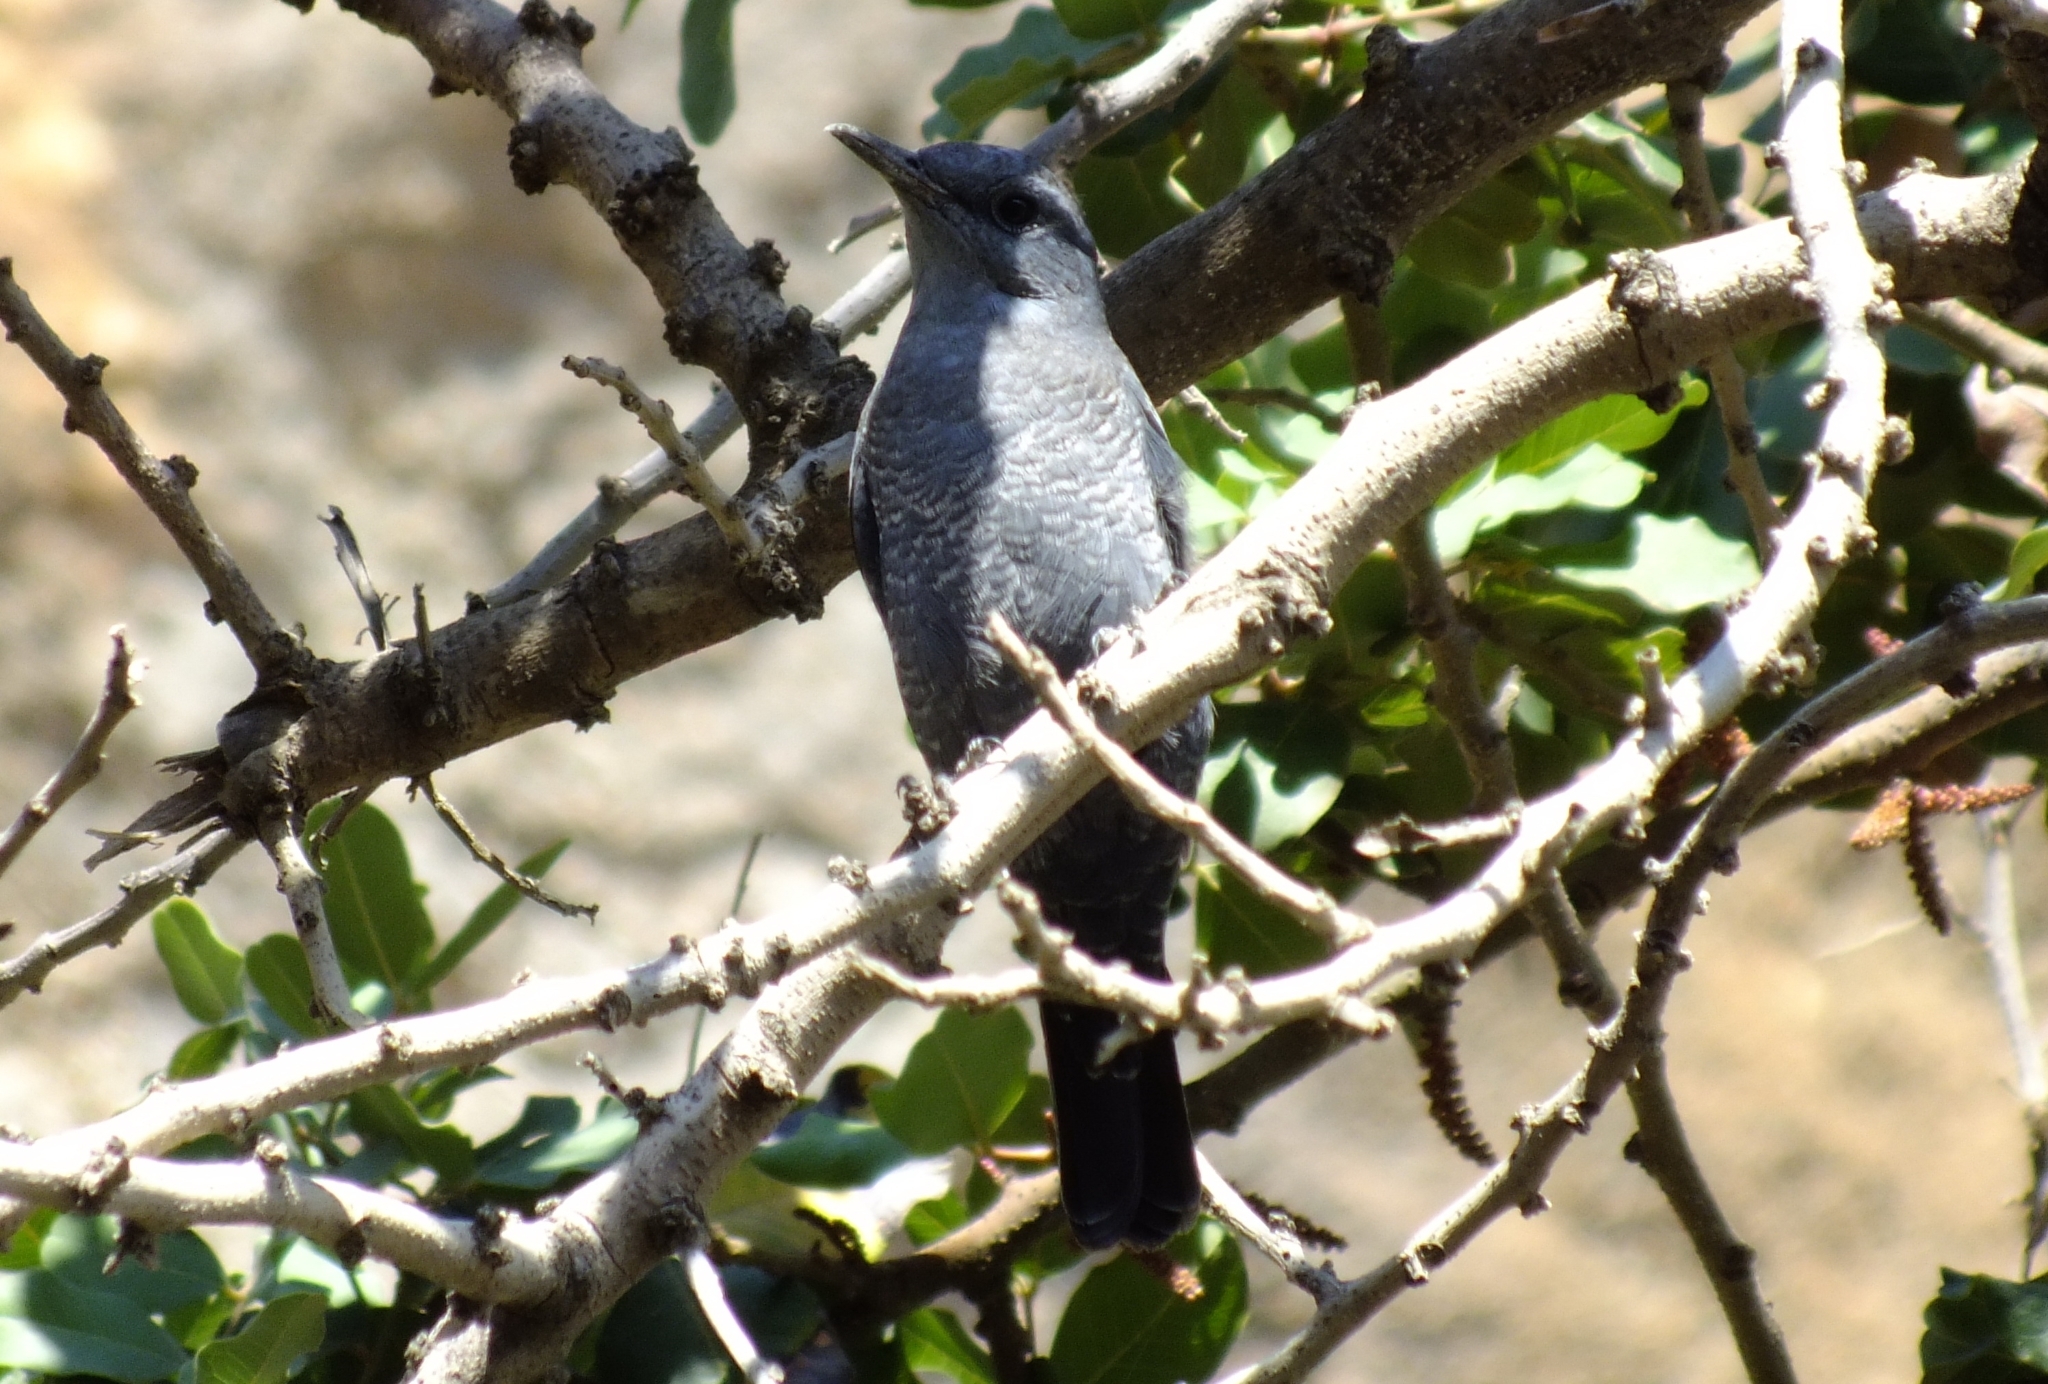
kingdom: Animalia
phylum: Chordata
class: Aves
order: Passeriformes
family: Muscicapidae
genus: Monticola
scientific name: Monticola solitarius
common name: Blue rock thrush
